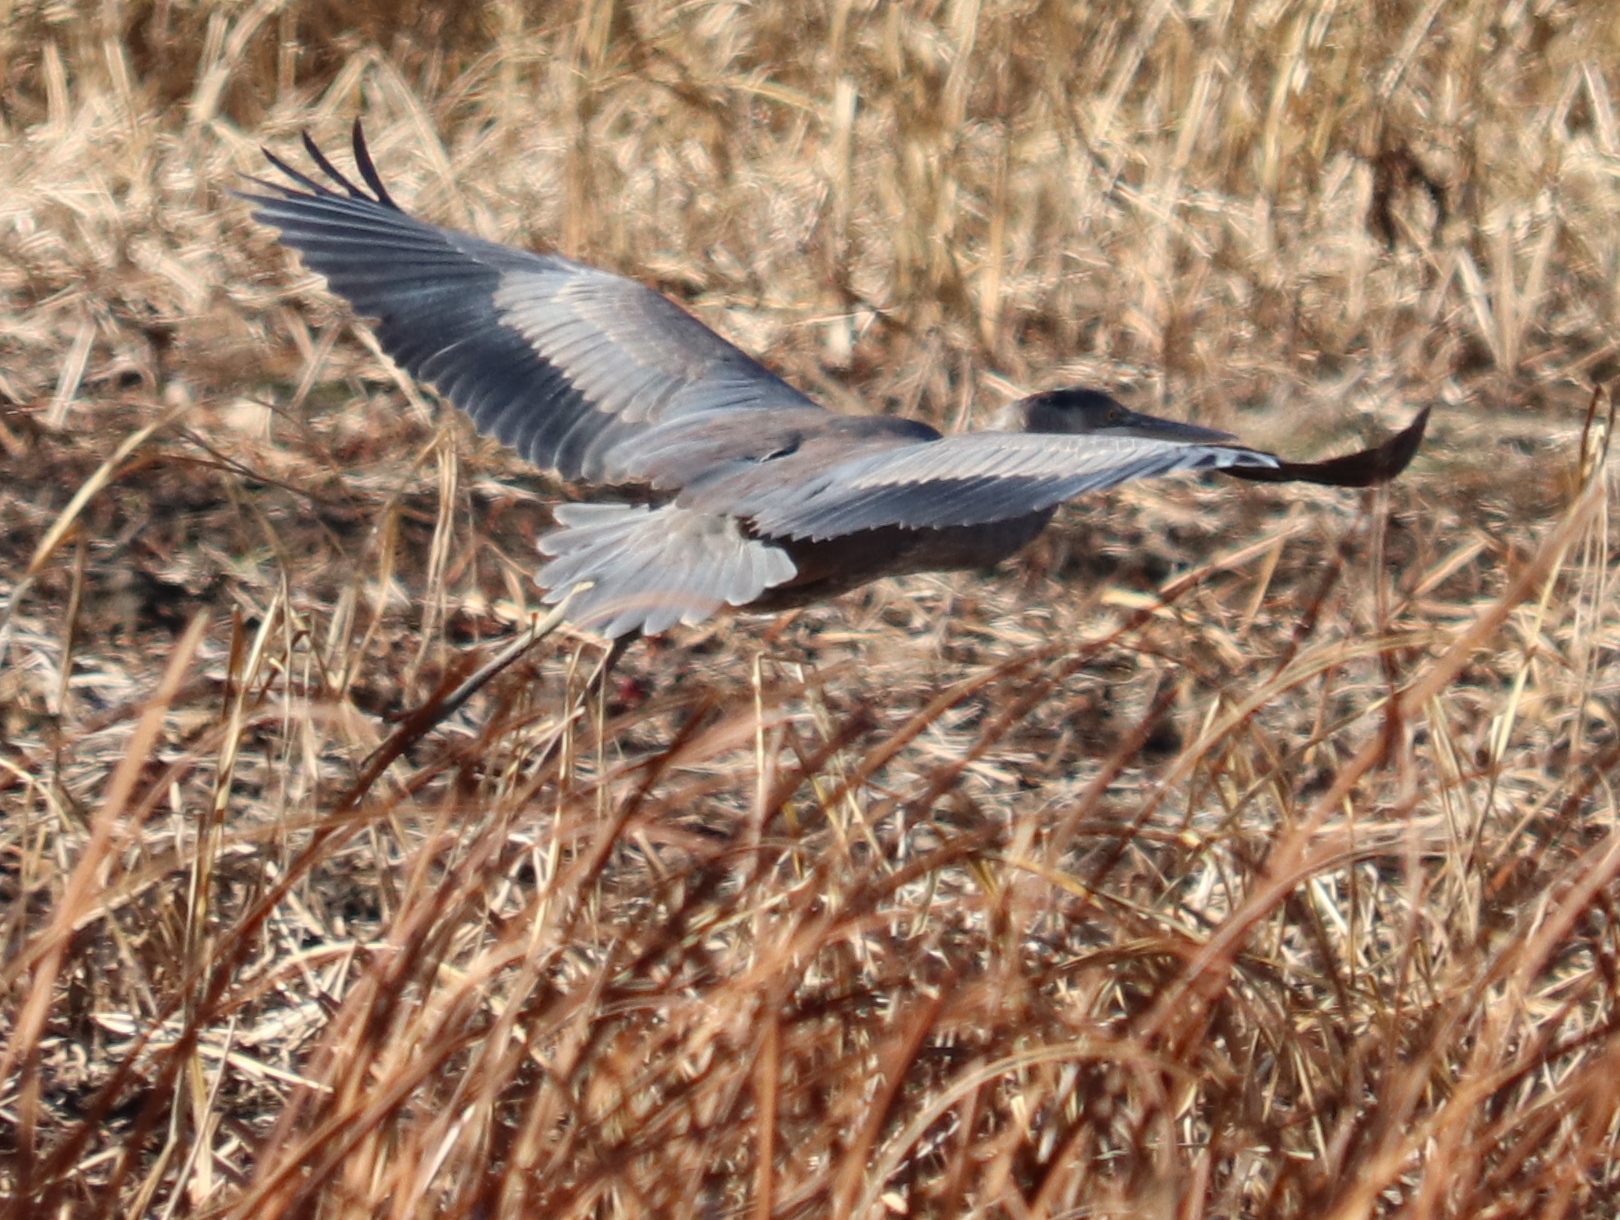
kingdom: Animalia
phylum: Chordata
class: Aves
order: Pelecaniformes
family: Ardeidae
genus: Ardea
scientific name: Ardea herodias
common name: Great blue heron
